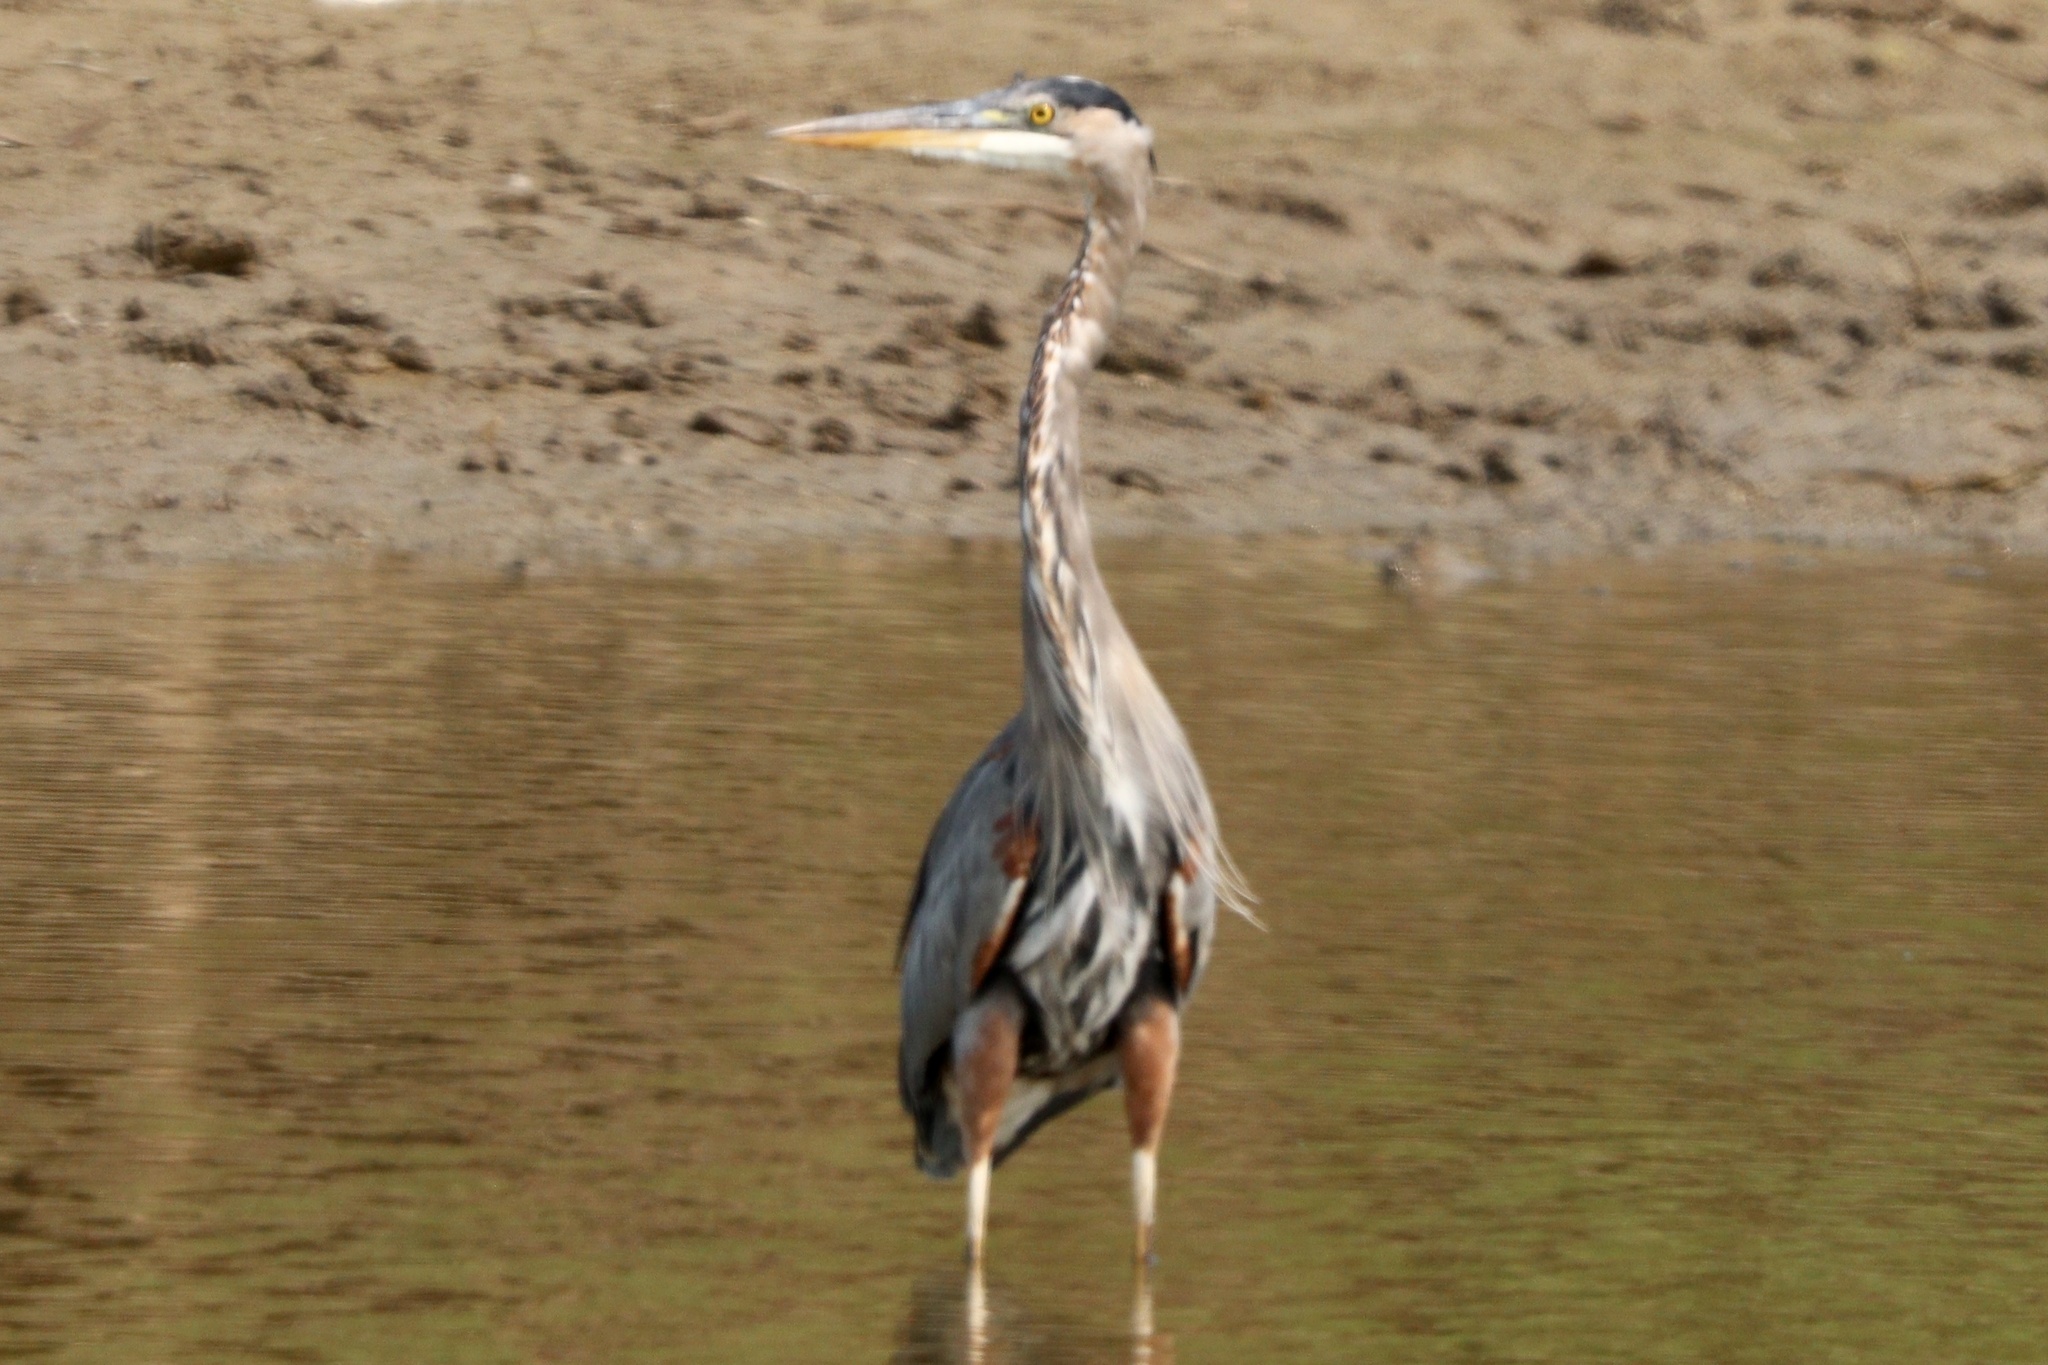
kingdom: Animalia
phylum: Chordata
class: Aves
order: Pelecaniformes
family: Ardeidae
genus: Ardea
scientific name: Ardea herodias
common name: Great blue heron
